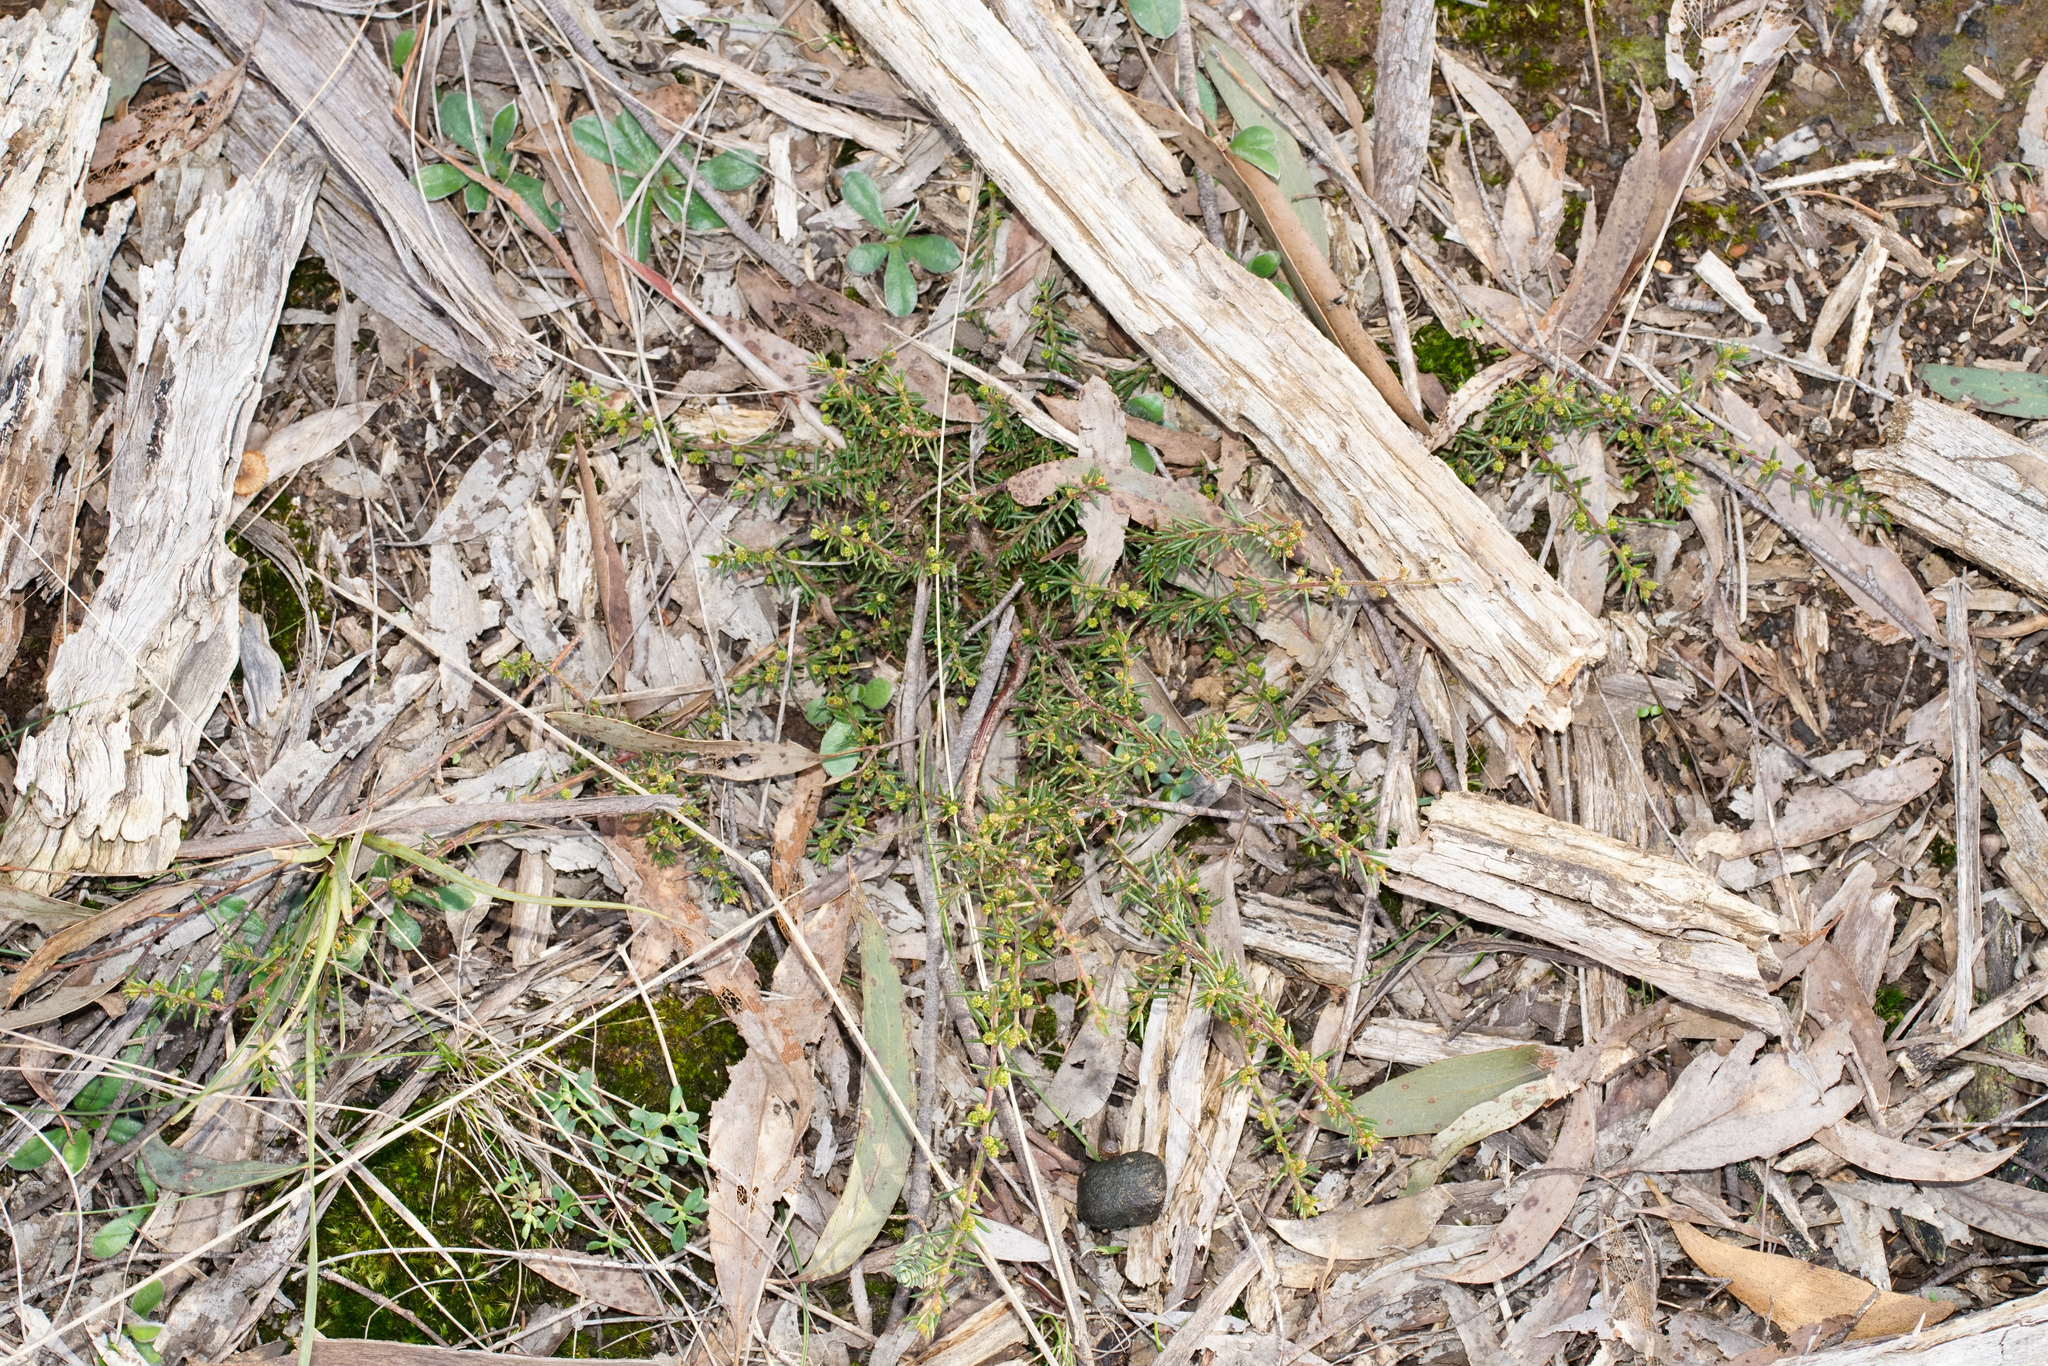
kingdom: Plantae
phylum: Tracheophyta
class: Magnoliopsida
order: Fabales
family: Fabaceae
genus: Acacia
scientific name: Acacia aculeatissima
